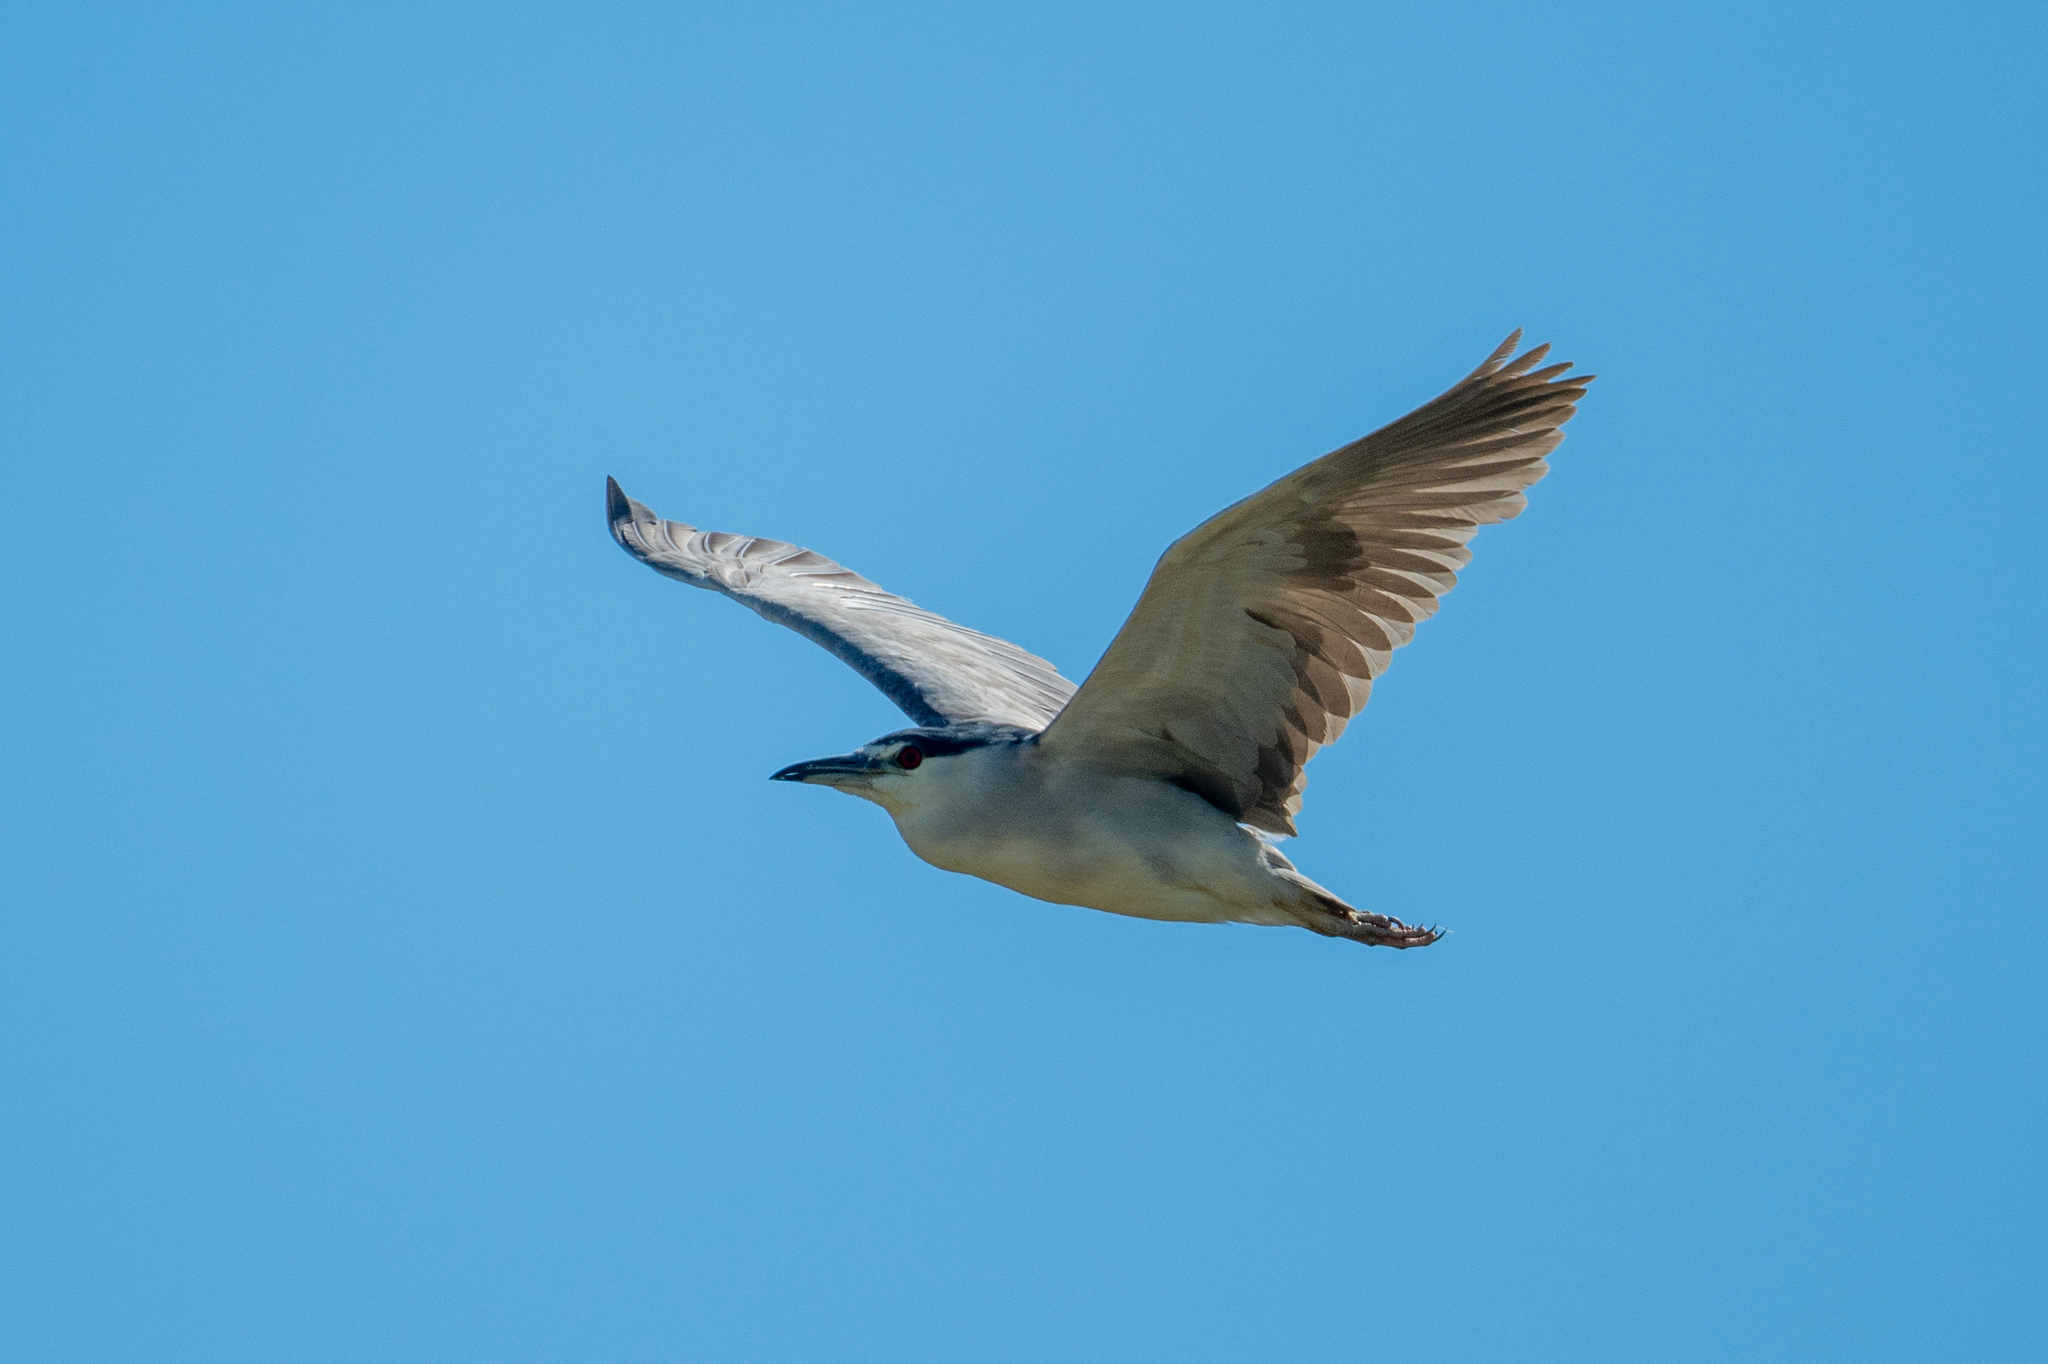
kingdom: Animalia
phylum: Chordata
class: Aves
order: Pelecaniformes
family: Ardeidae
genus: Nycticorax
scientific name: Nycticorax nycticorax
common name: Black-crowned night heron
